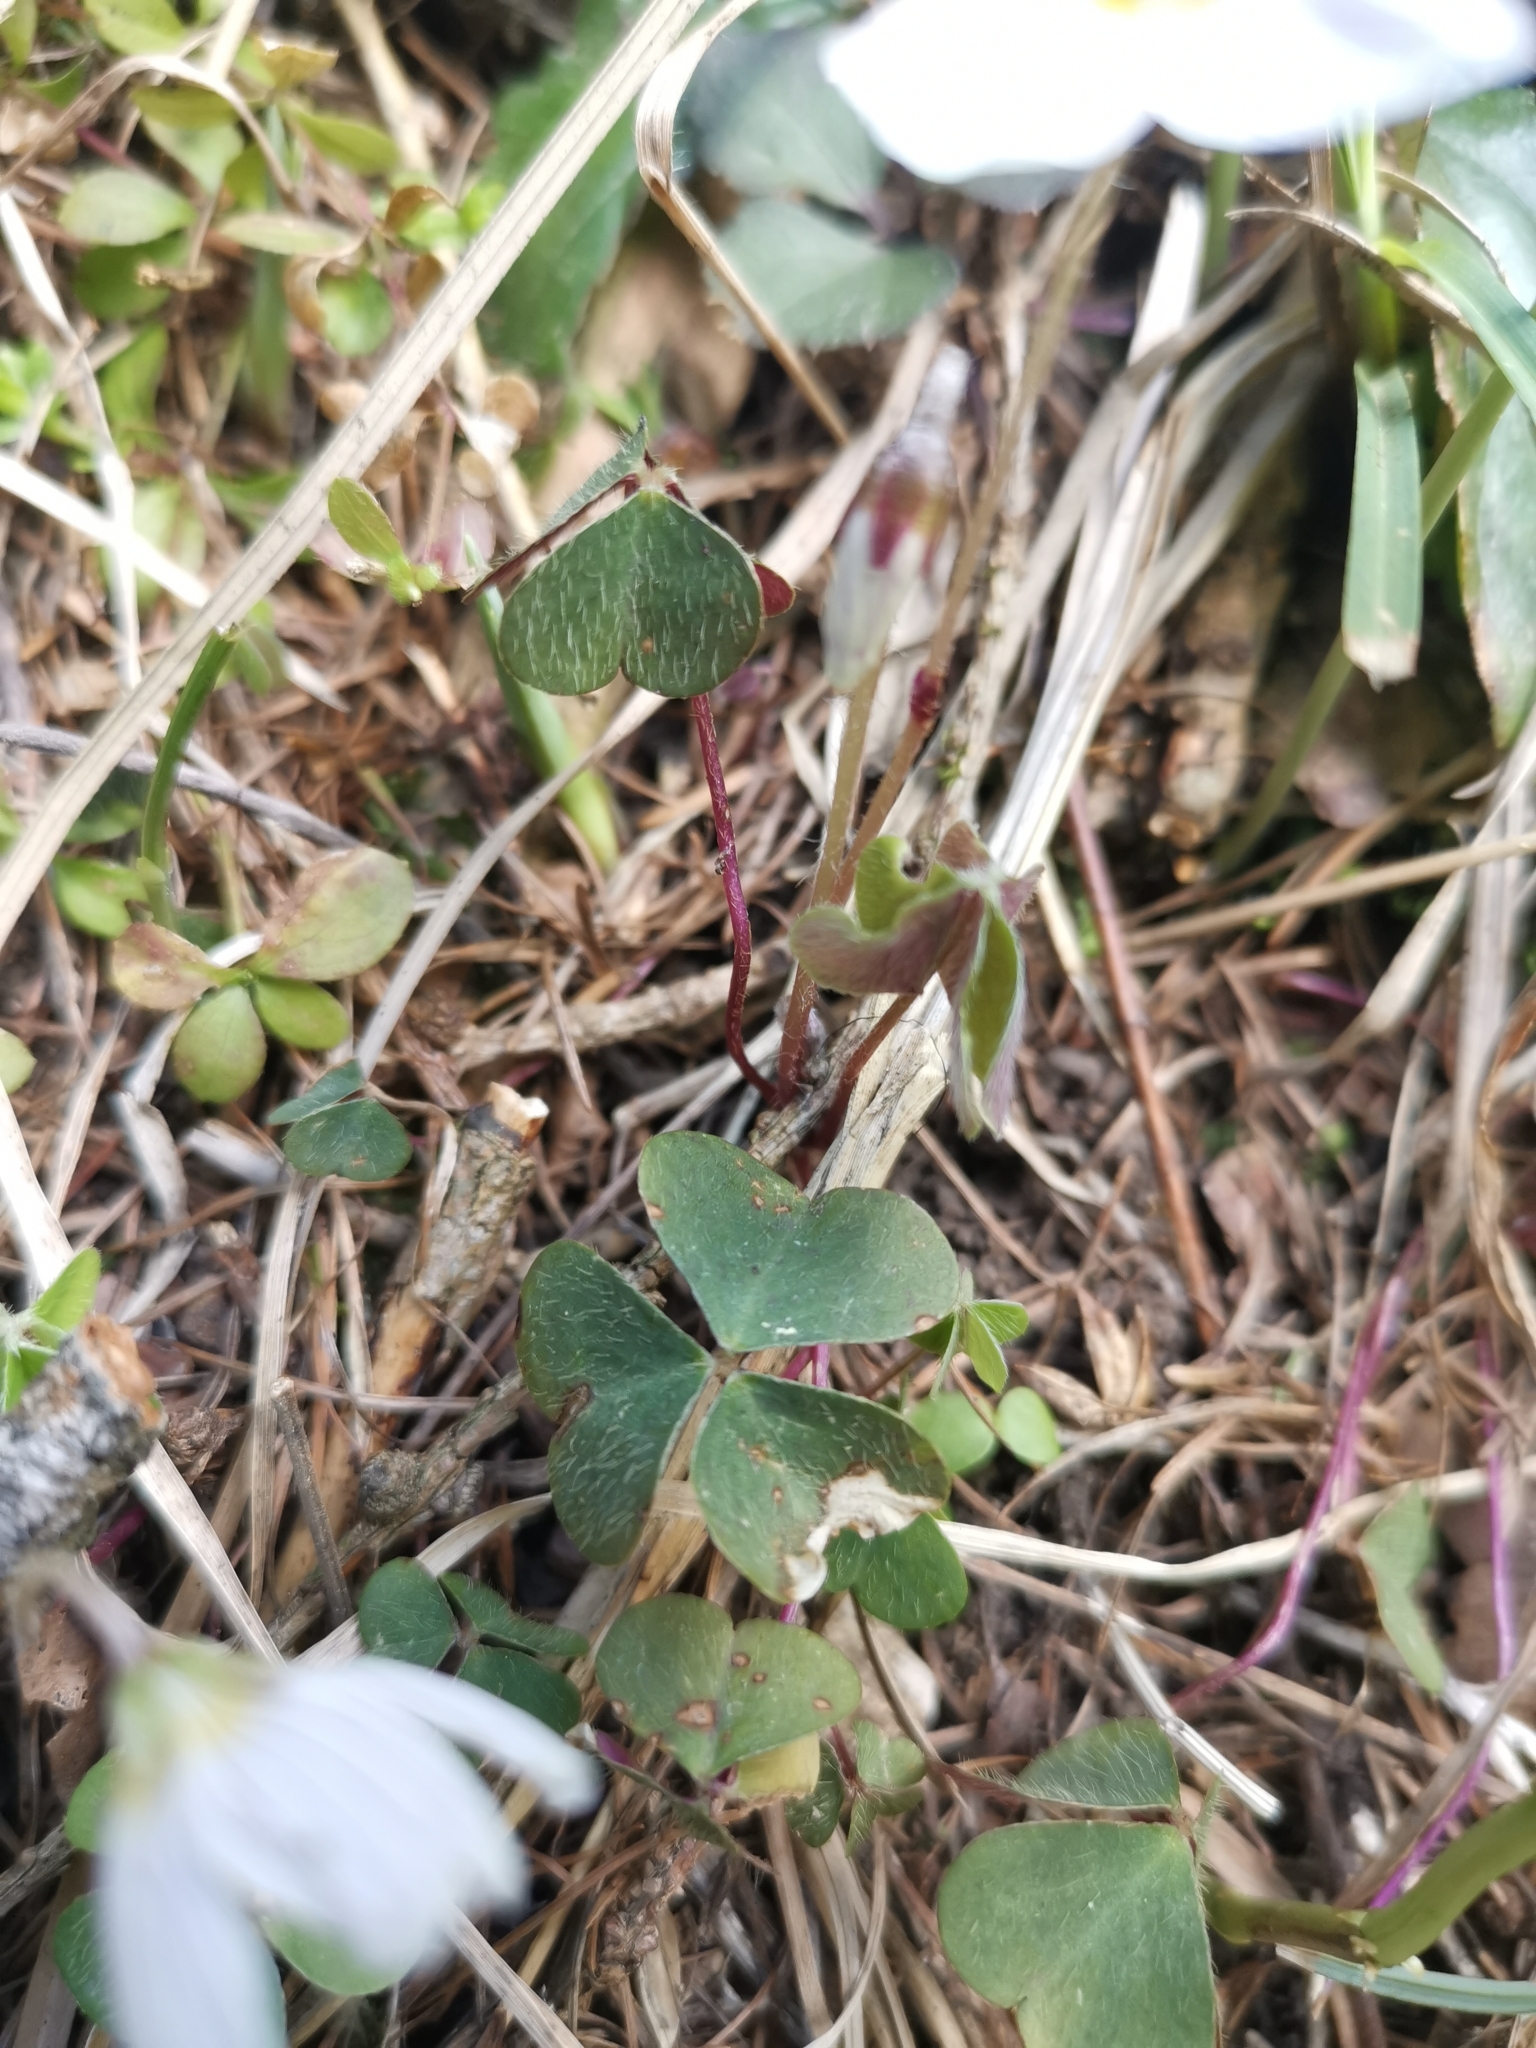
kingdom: Plantae
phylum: Tracheophyta
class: Magnoliopsida
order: Oxalidales
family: Oxalidaceae
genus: Oxalis
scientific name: Oxalis acetosella
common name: Wood-sorrel
